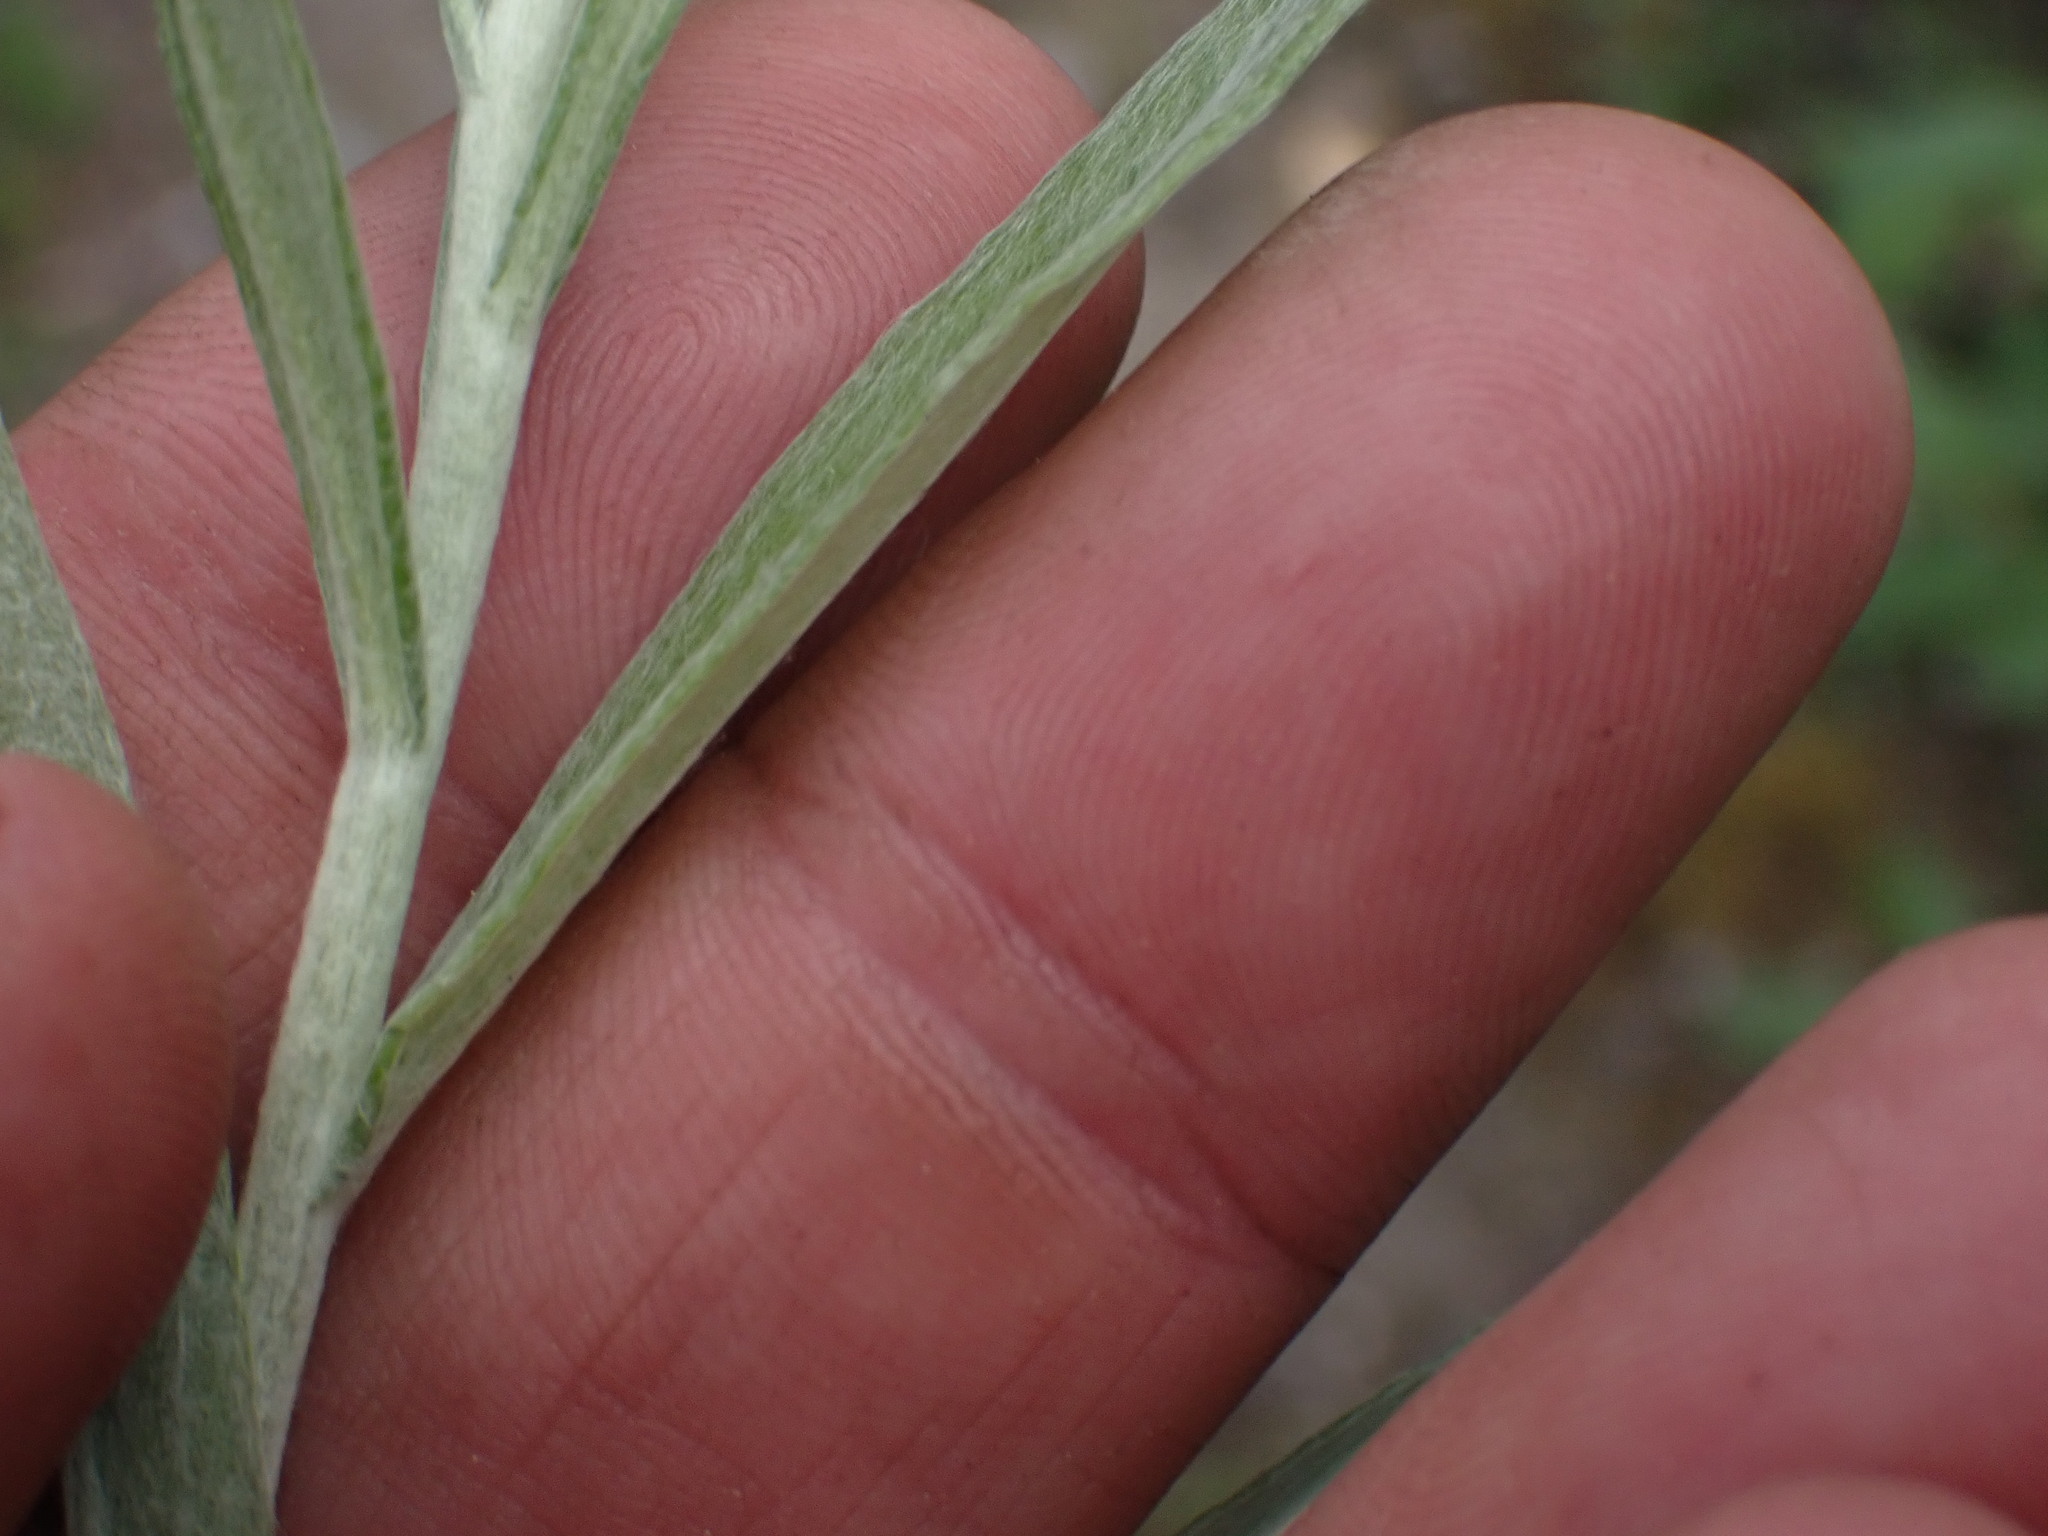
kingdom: Plantae
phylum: Tracheophyta
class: Magnoliopsida
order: Asterales
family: Asteraceae
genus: Anaphalis
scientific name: Anaphalis margaritacea
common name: Pearly everlasting
